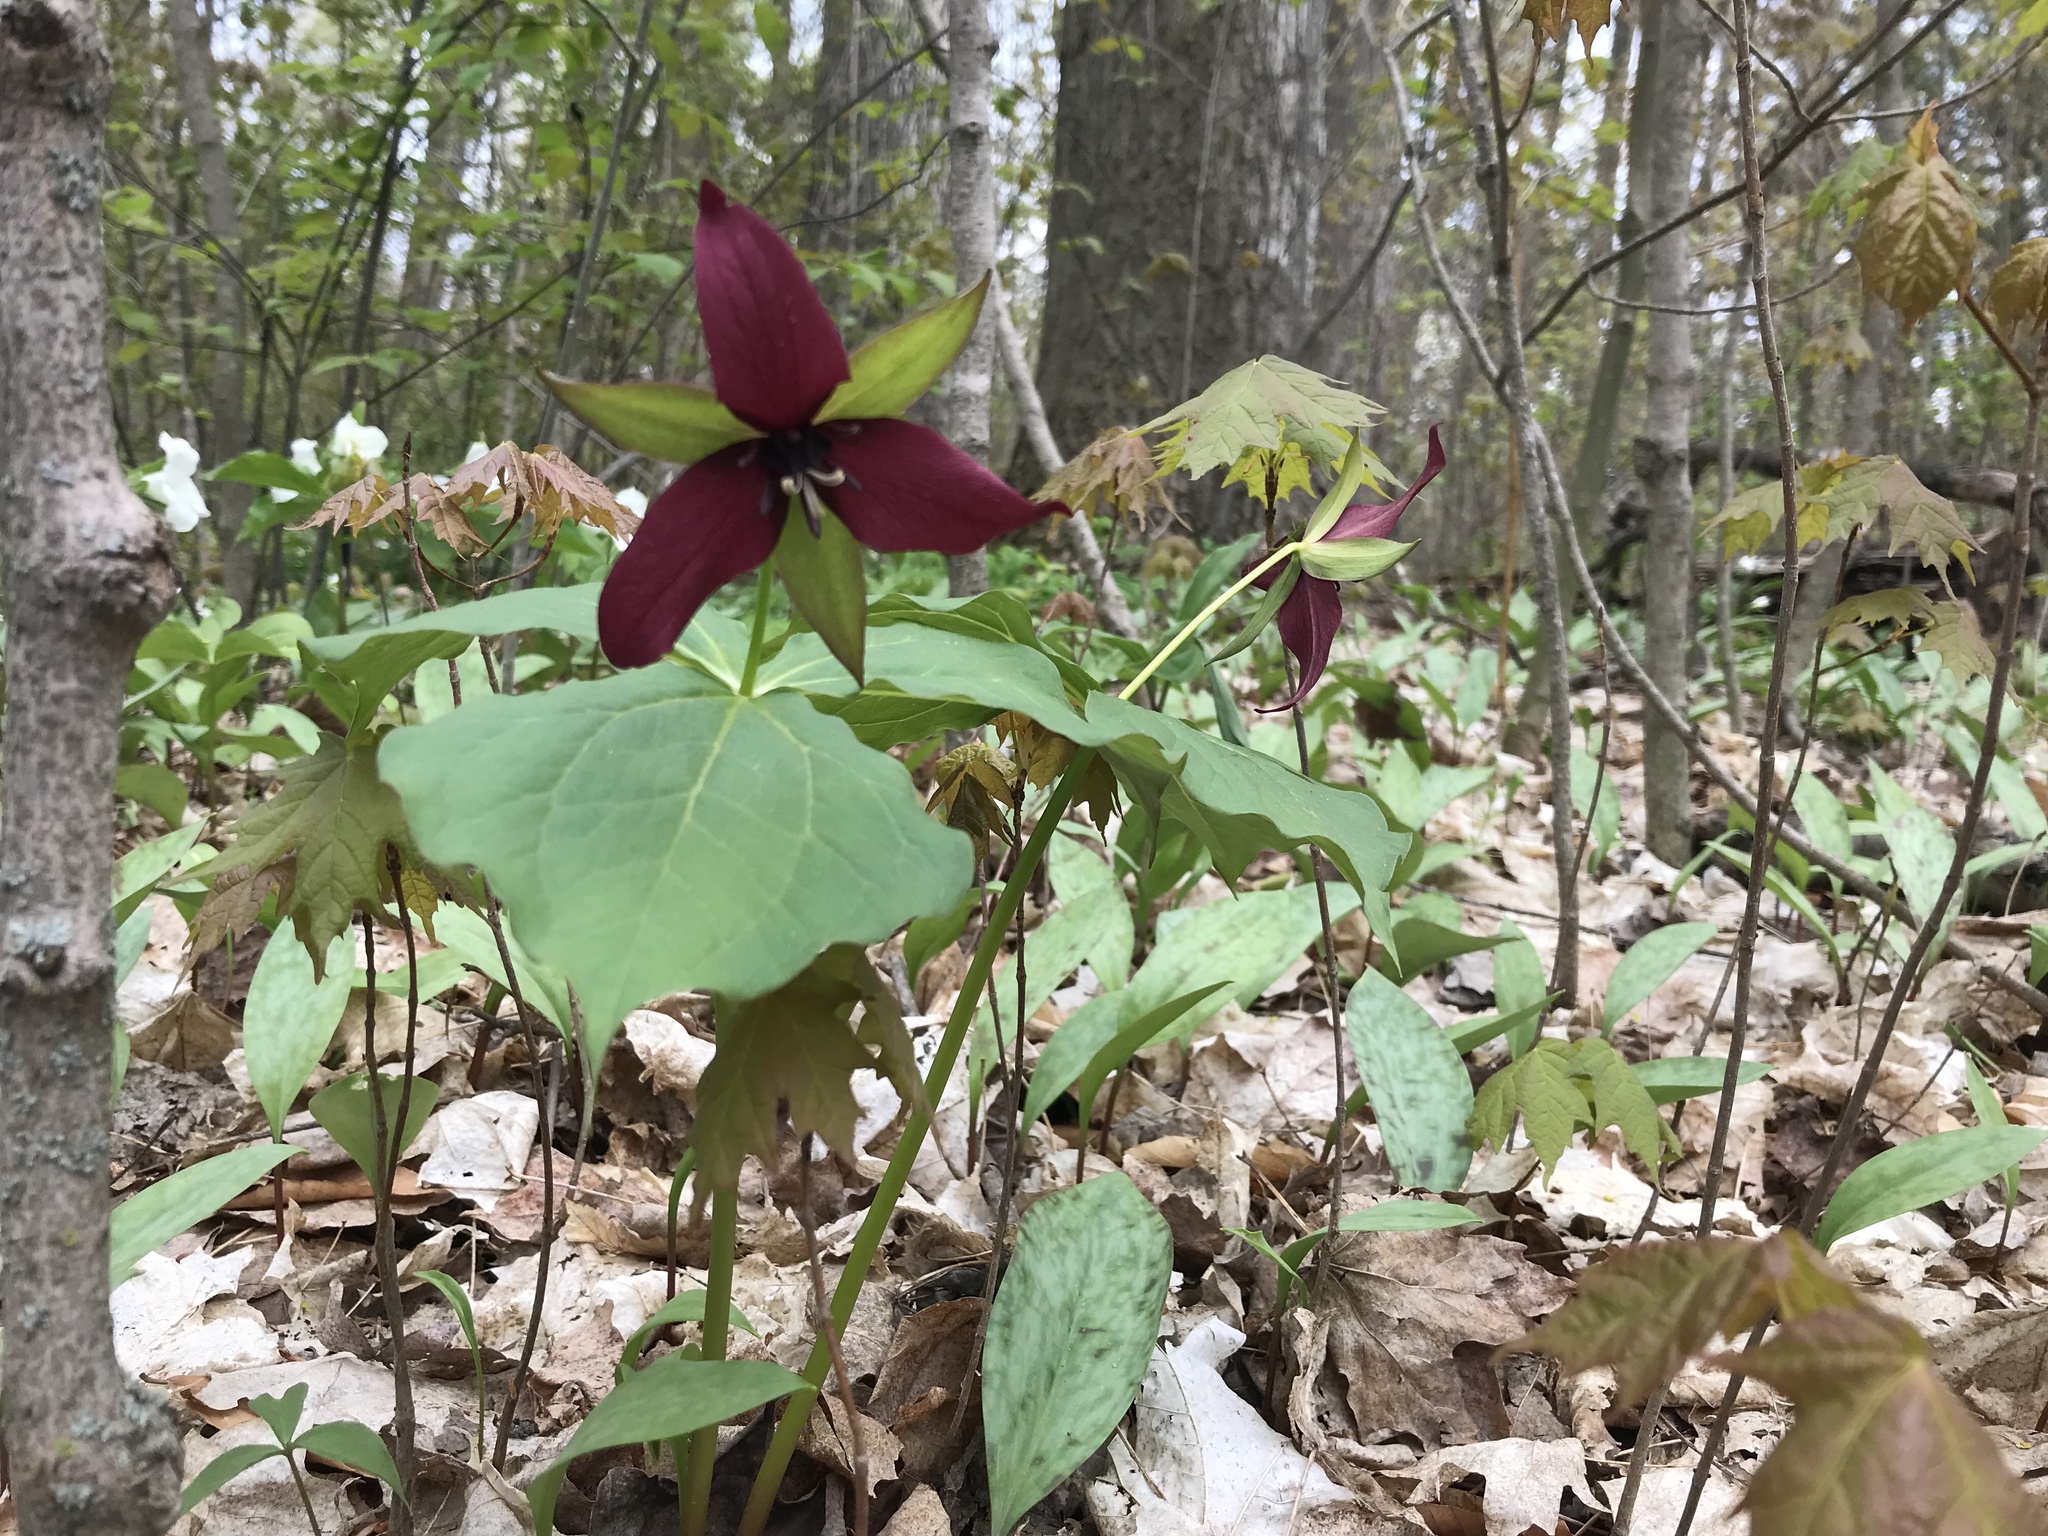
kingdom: Plantae
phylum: Tracheophyta
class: Liliopsida
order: Liliales
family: Melanthiaceae
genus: Trillium
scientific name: Trillium erectum
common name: Purple trillium
